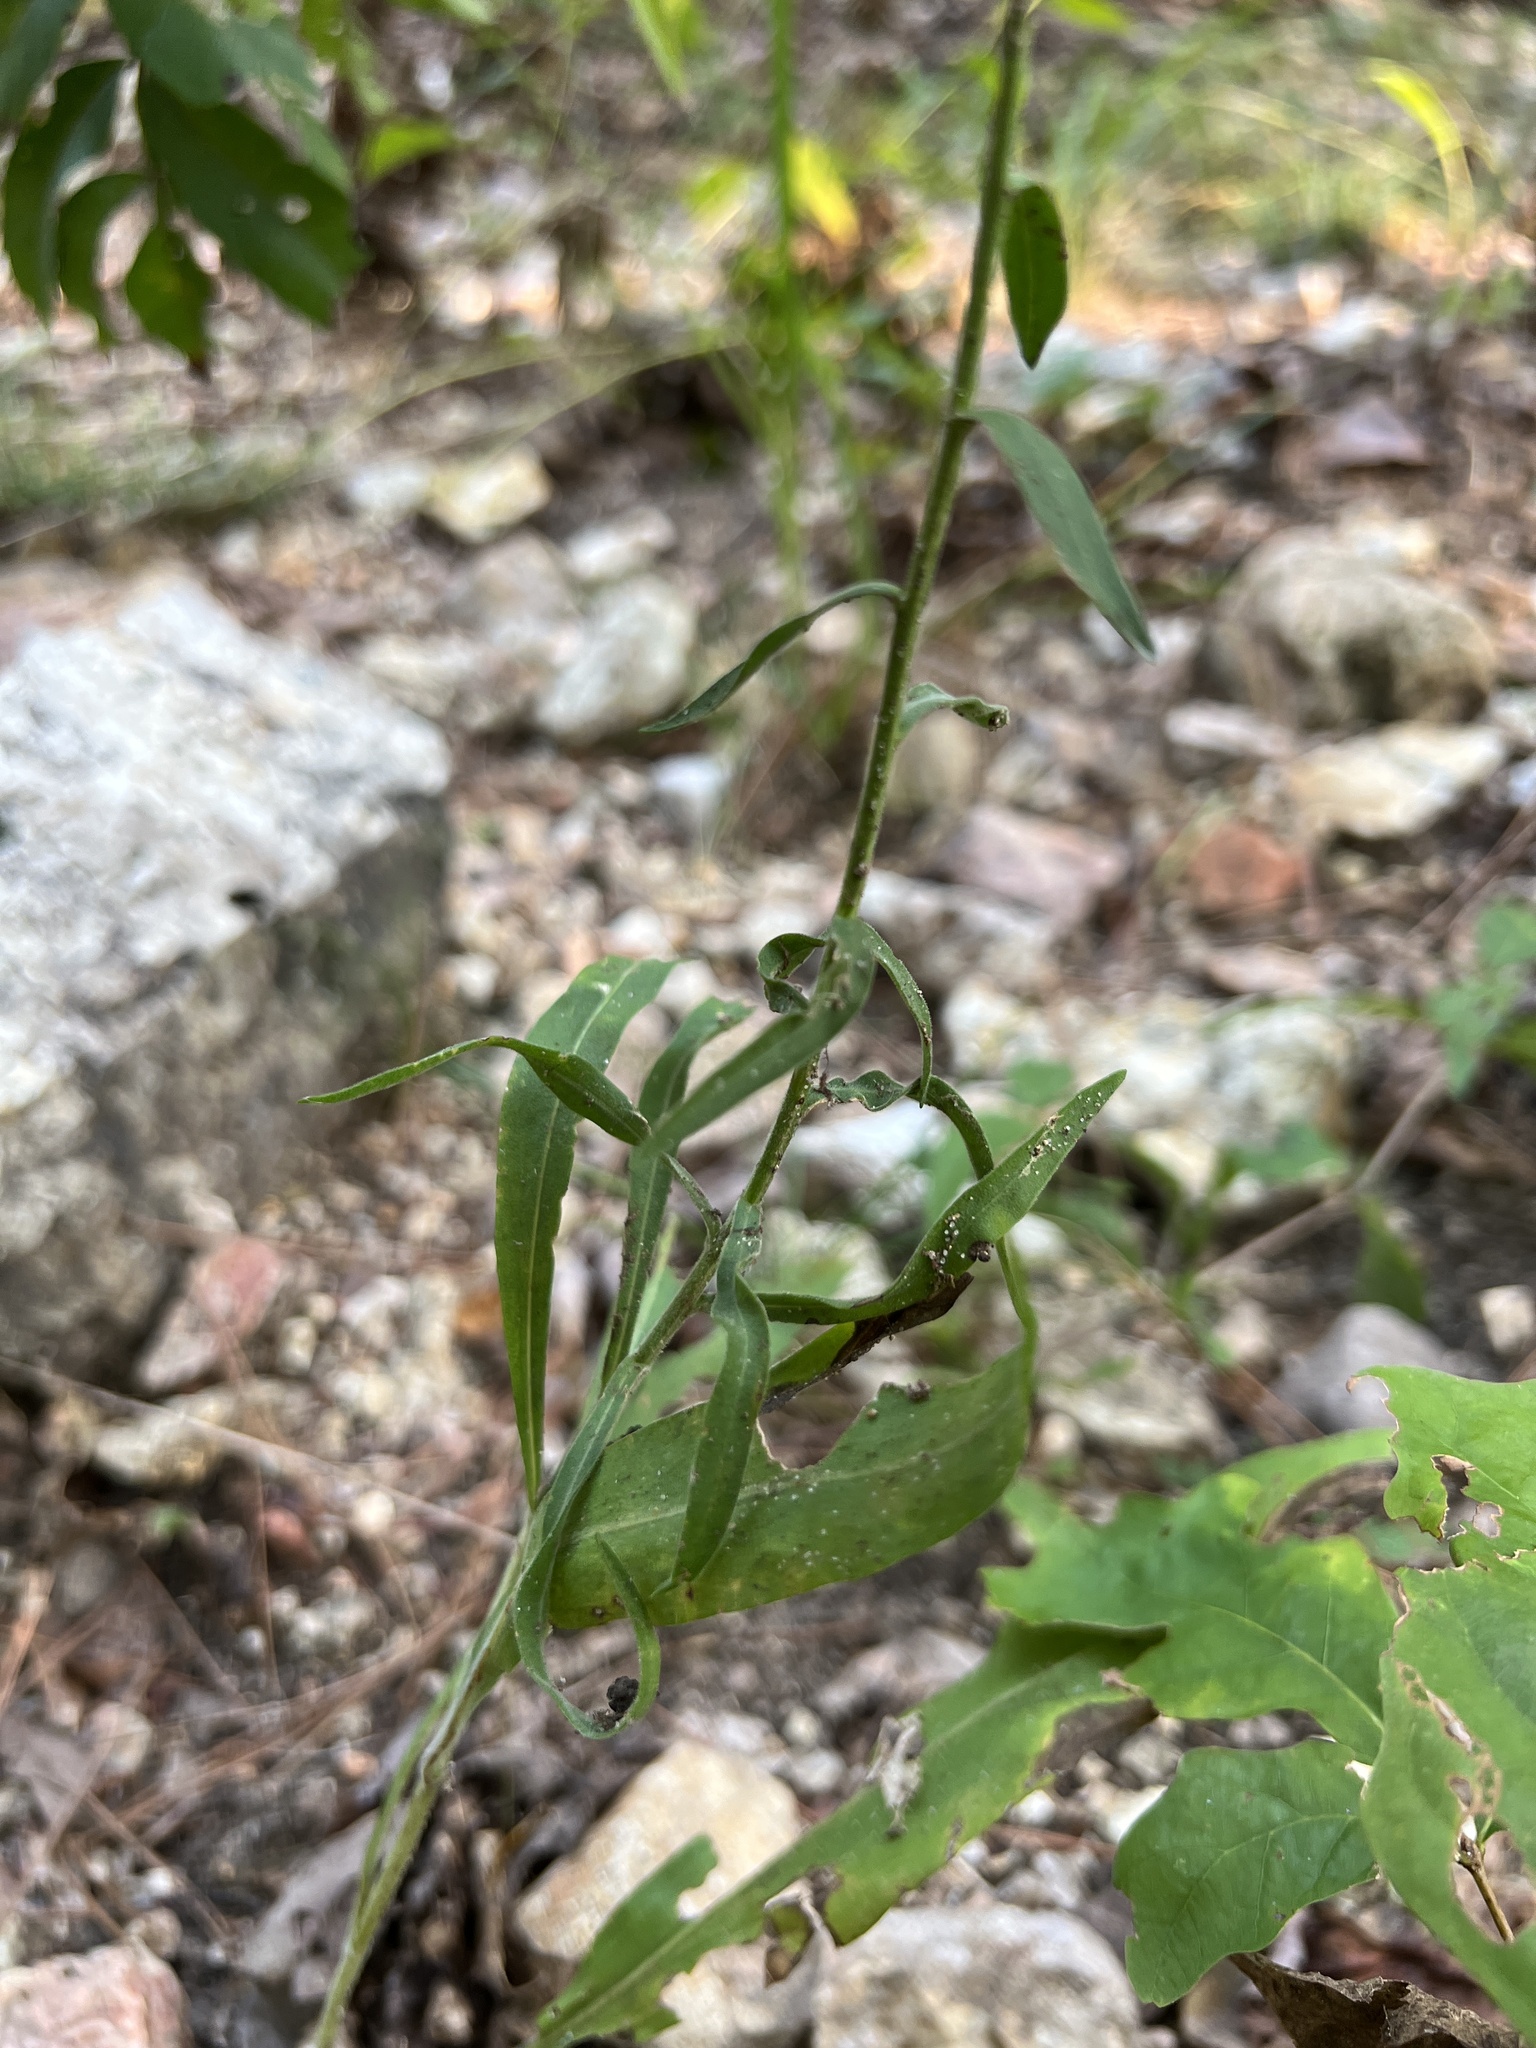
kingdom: Plantae
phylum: Tracheophyta
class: Magnoliopsida
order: Asterales
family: Asteraceae
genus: Liatris
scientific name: Liatris squarrulosa
